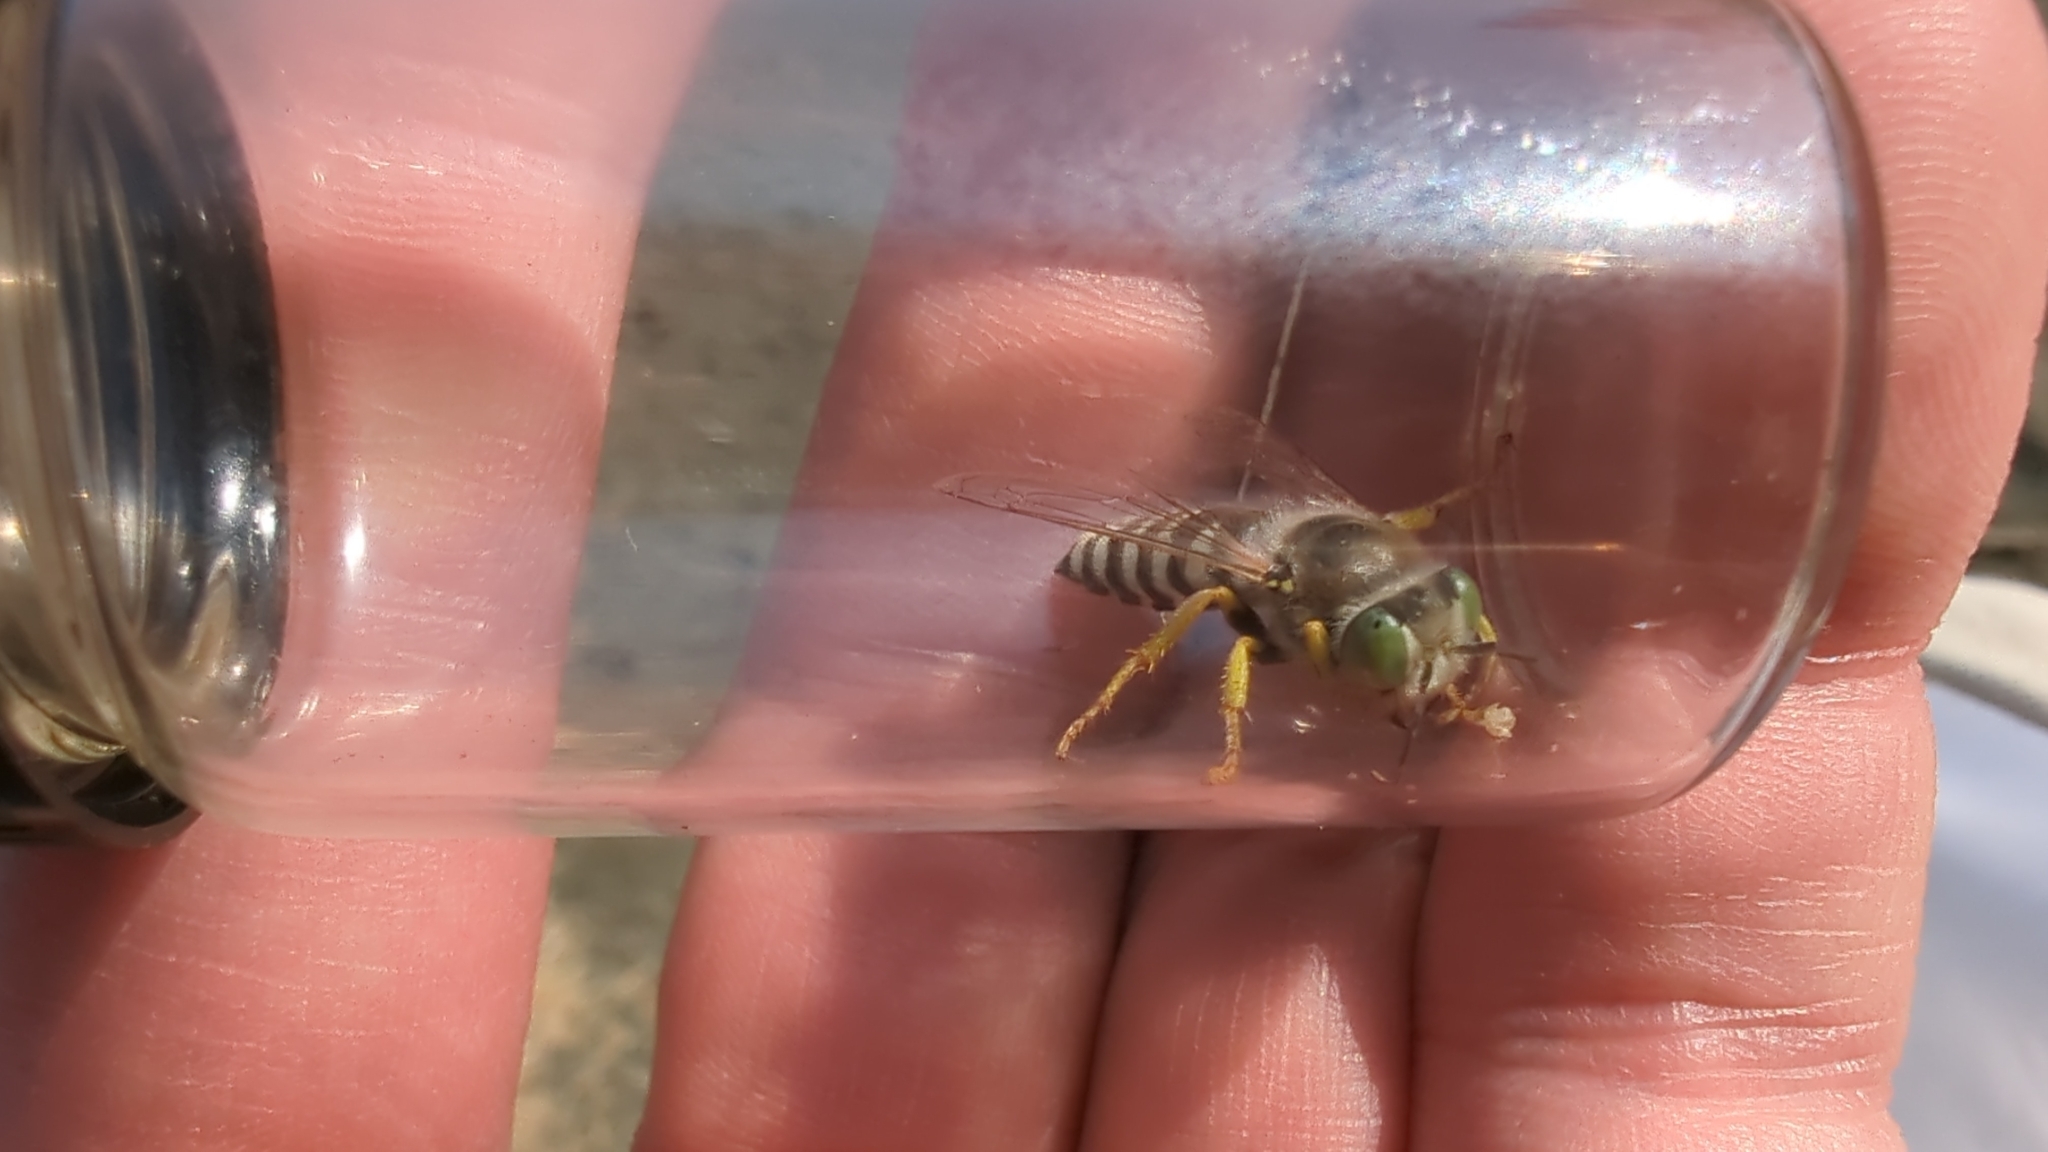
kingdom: Animalia
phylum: Arthropoda
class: Insecta
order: Hymenoptera
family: Crabronidae
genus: Bembix
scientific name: Bembix americana
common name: American sand wasp
